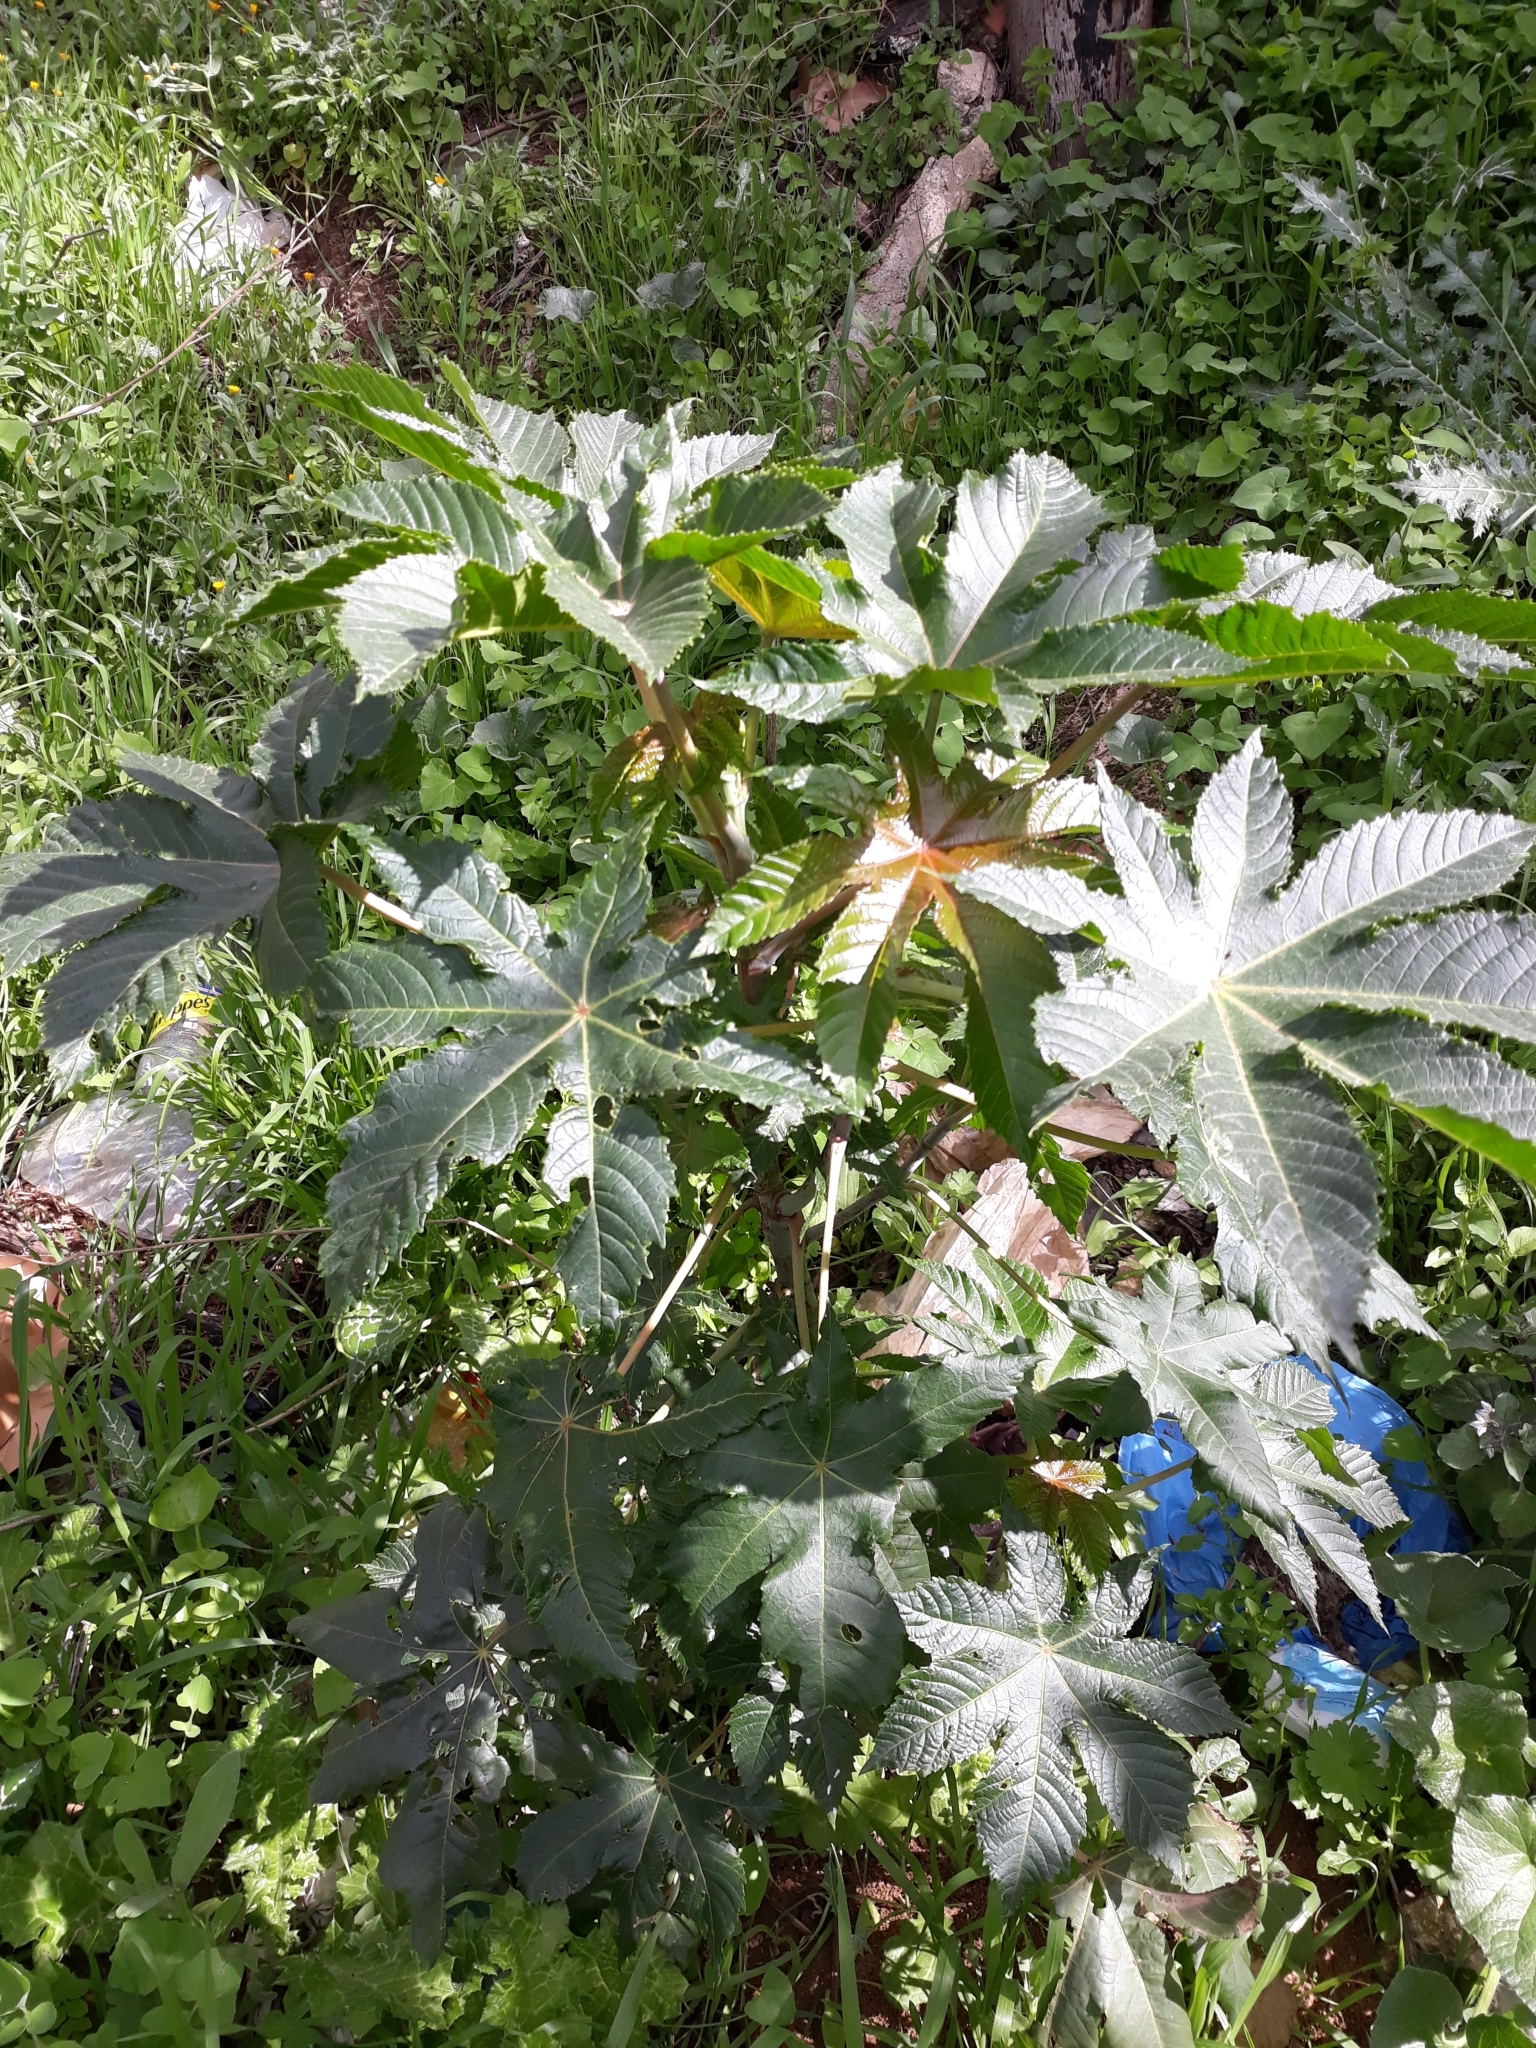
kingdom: Plantae
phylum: Tracheophyta
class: Magnoliopsida
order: Malpighiales
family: Euphorbiaceae
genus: Ricinus
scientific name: Ricinus communis
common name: Castor-oil-plant
